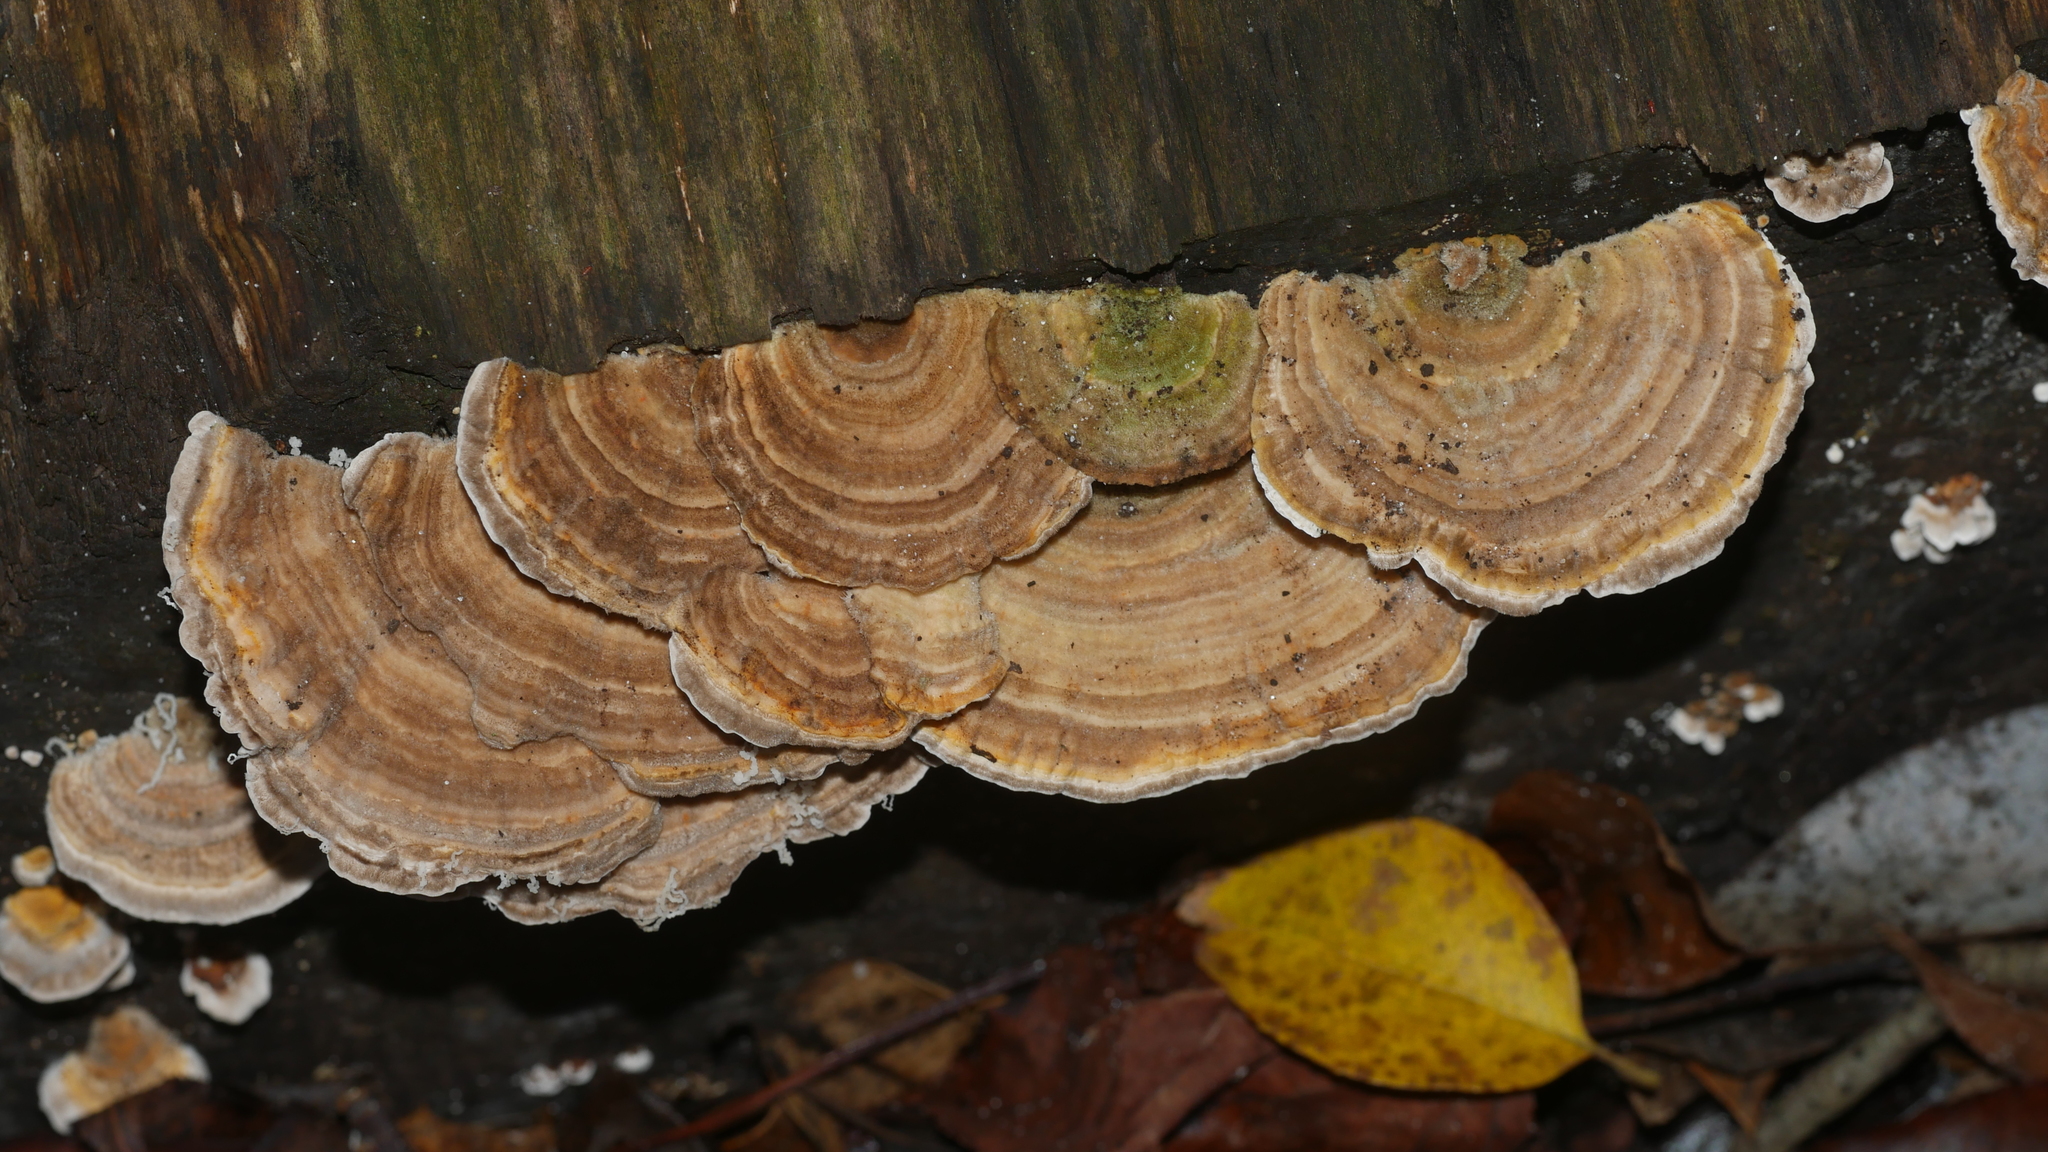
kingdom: Fungi
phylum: Basidiomycota
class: Agaricomycetes
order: Polyporales
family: Polyporaceae
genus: Lenzites
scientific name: Lenzites betulinus
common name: Birch mazegill
